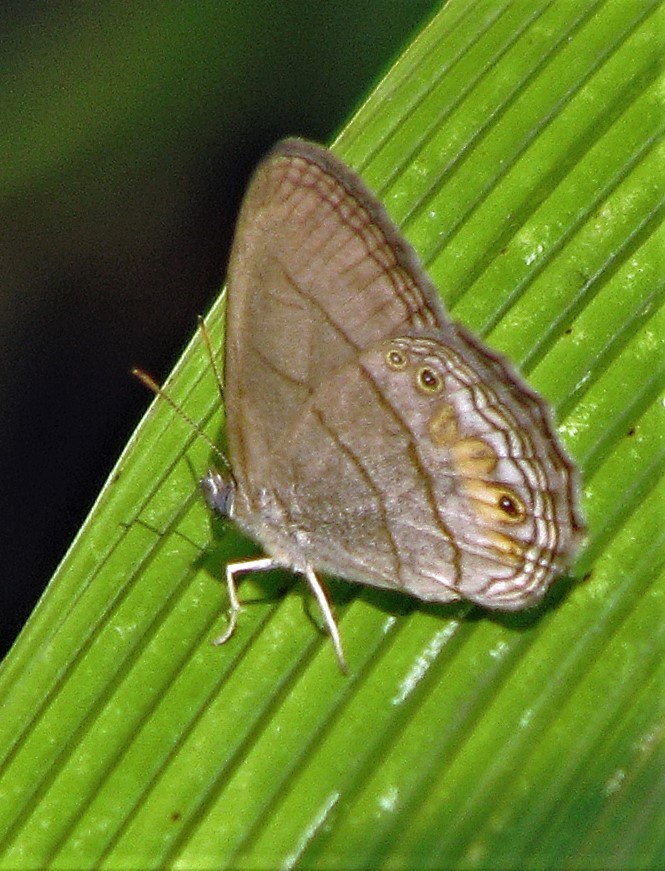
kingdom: Animalia
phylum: Arthropoda
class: Insecta
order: Lepidoptera
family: Nymphalidae
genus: Splendeuptychia
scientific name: Splendeuptychia tupinamba
